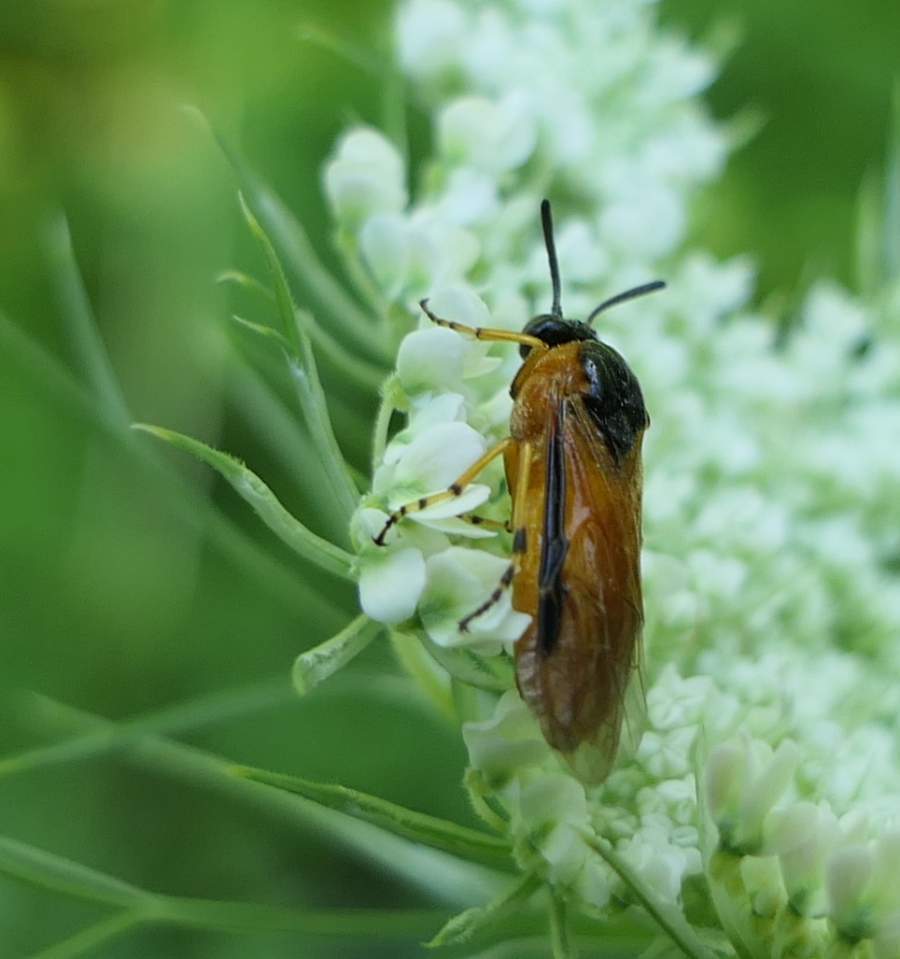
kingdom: Animalia
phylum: Arthropoda
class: Insecta
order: Hymenoptera
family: Argidae
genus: Arge
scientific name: Arge ochropus
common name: Argid sawfly
